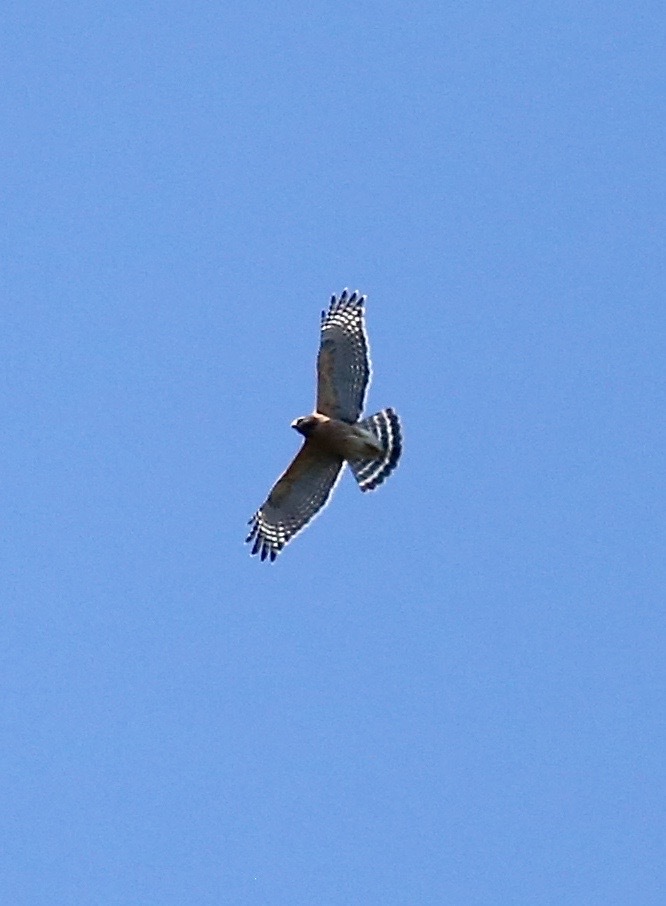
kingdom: Animalia
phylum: Chordata
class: Aves
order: Accipitriformes
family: Accipitridae
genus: Buteo
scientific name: Buteo lineatus
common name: Red-shouldered hawk
